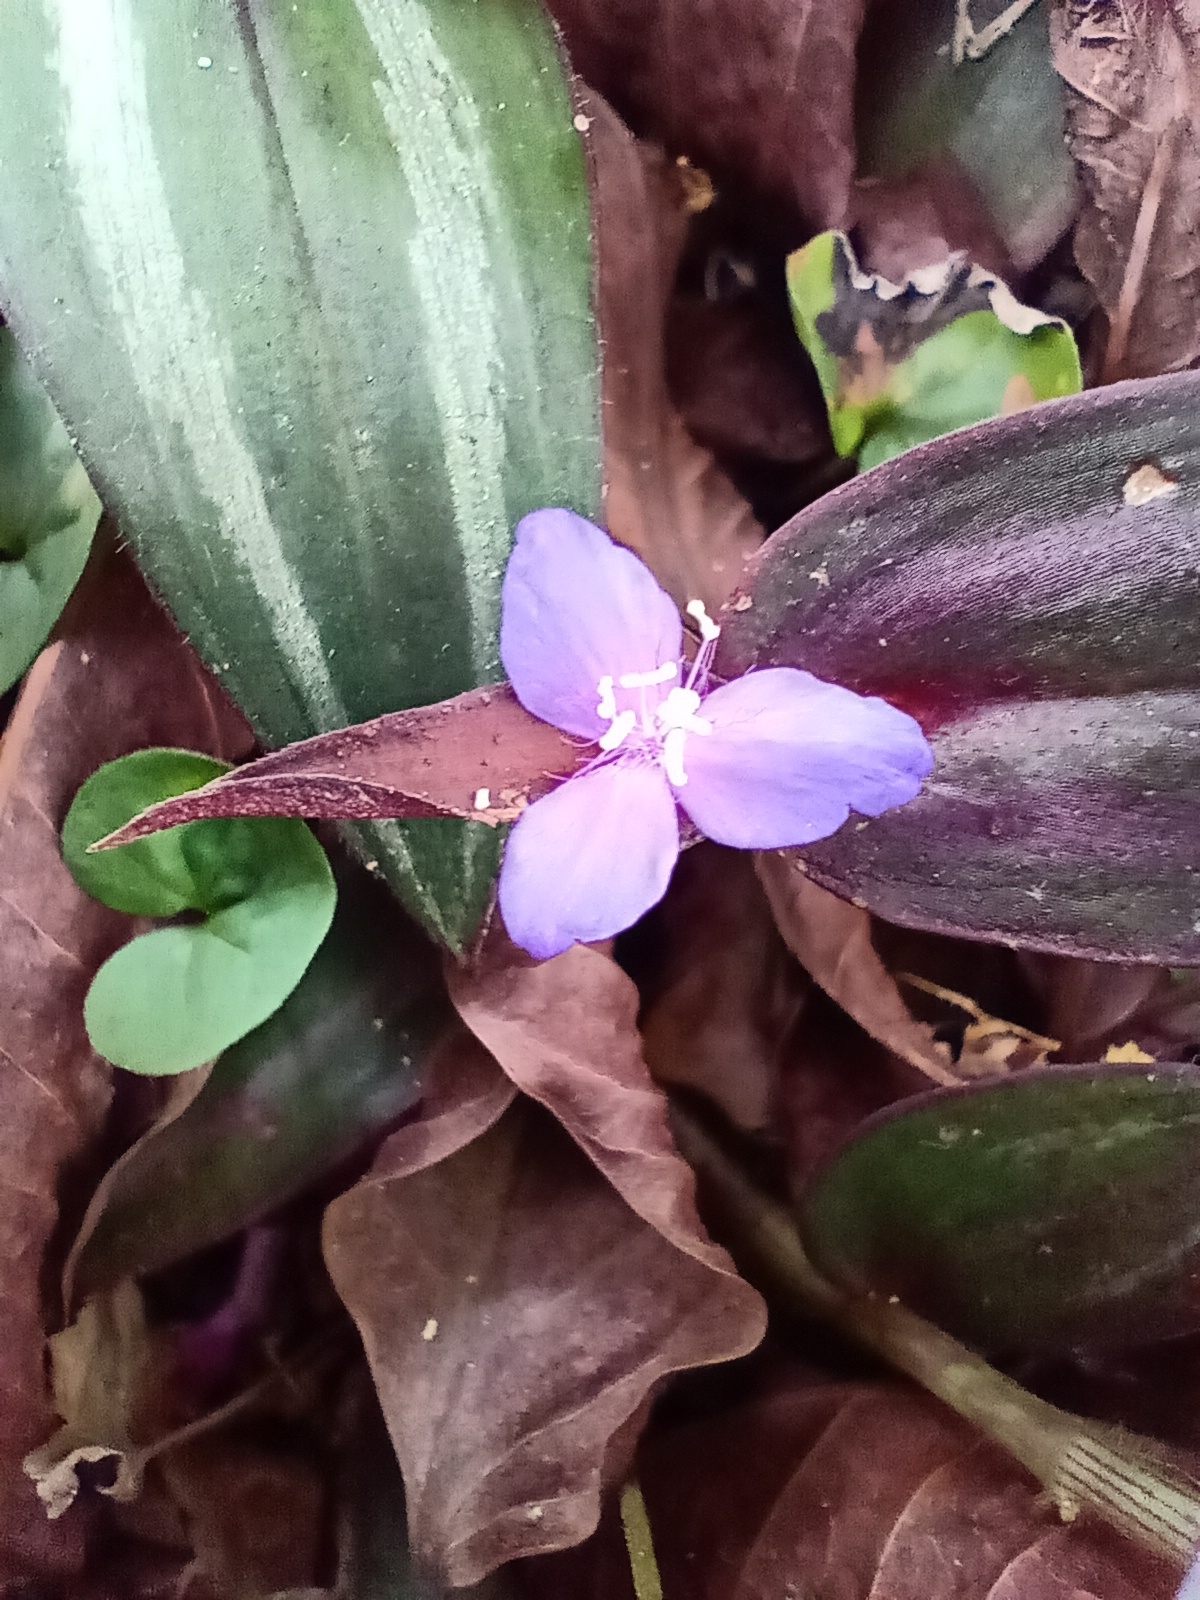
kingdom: Plantae
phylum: Tracheophyta
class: Liliopsida
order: Commelinales
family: Commelinaceae
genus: Tradescantia
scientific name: Tradescantia zebrina
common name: Inchplant
